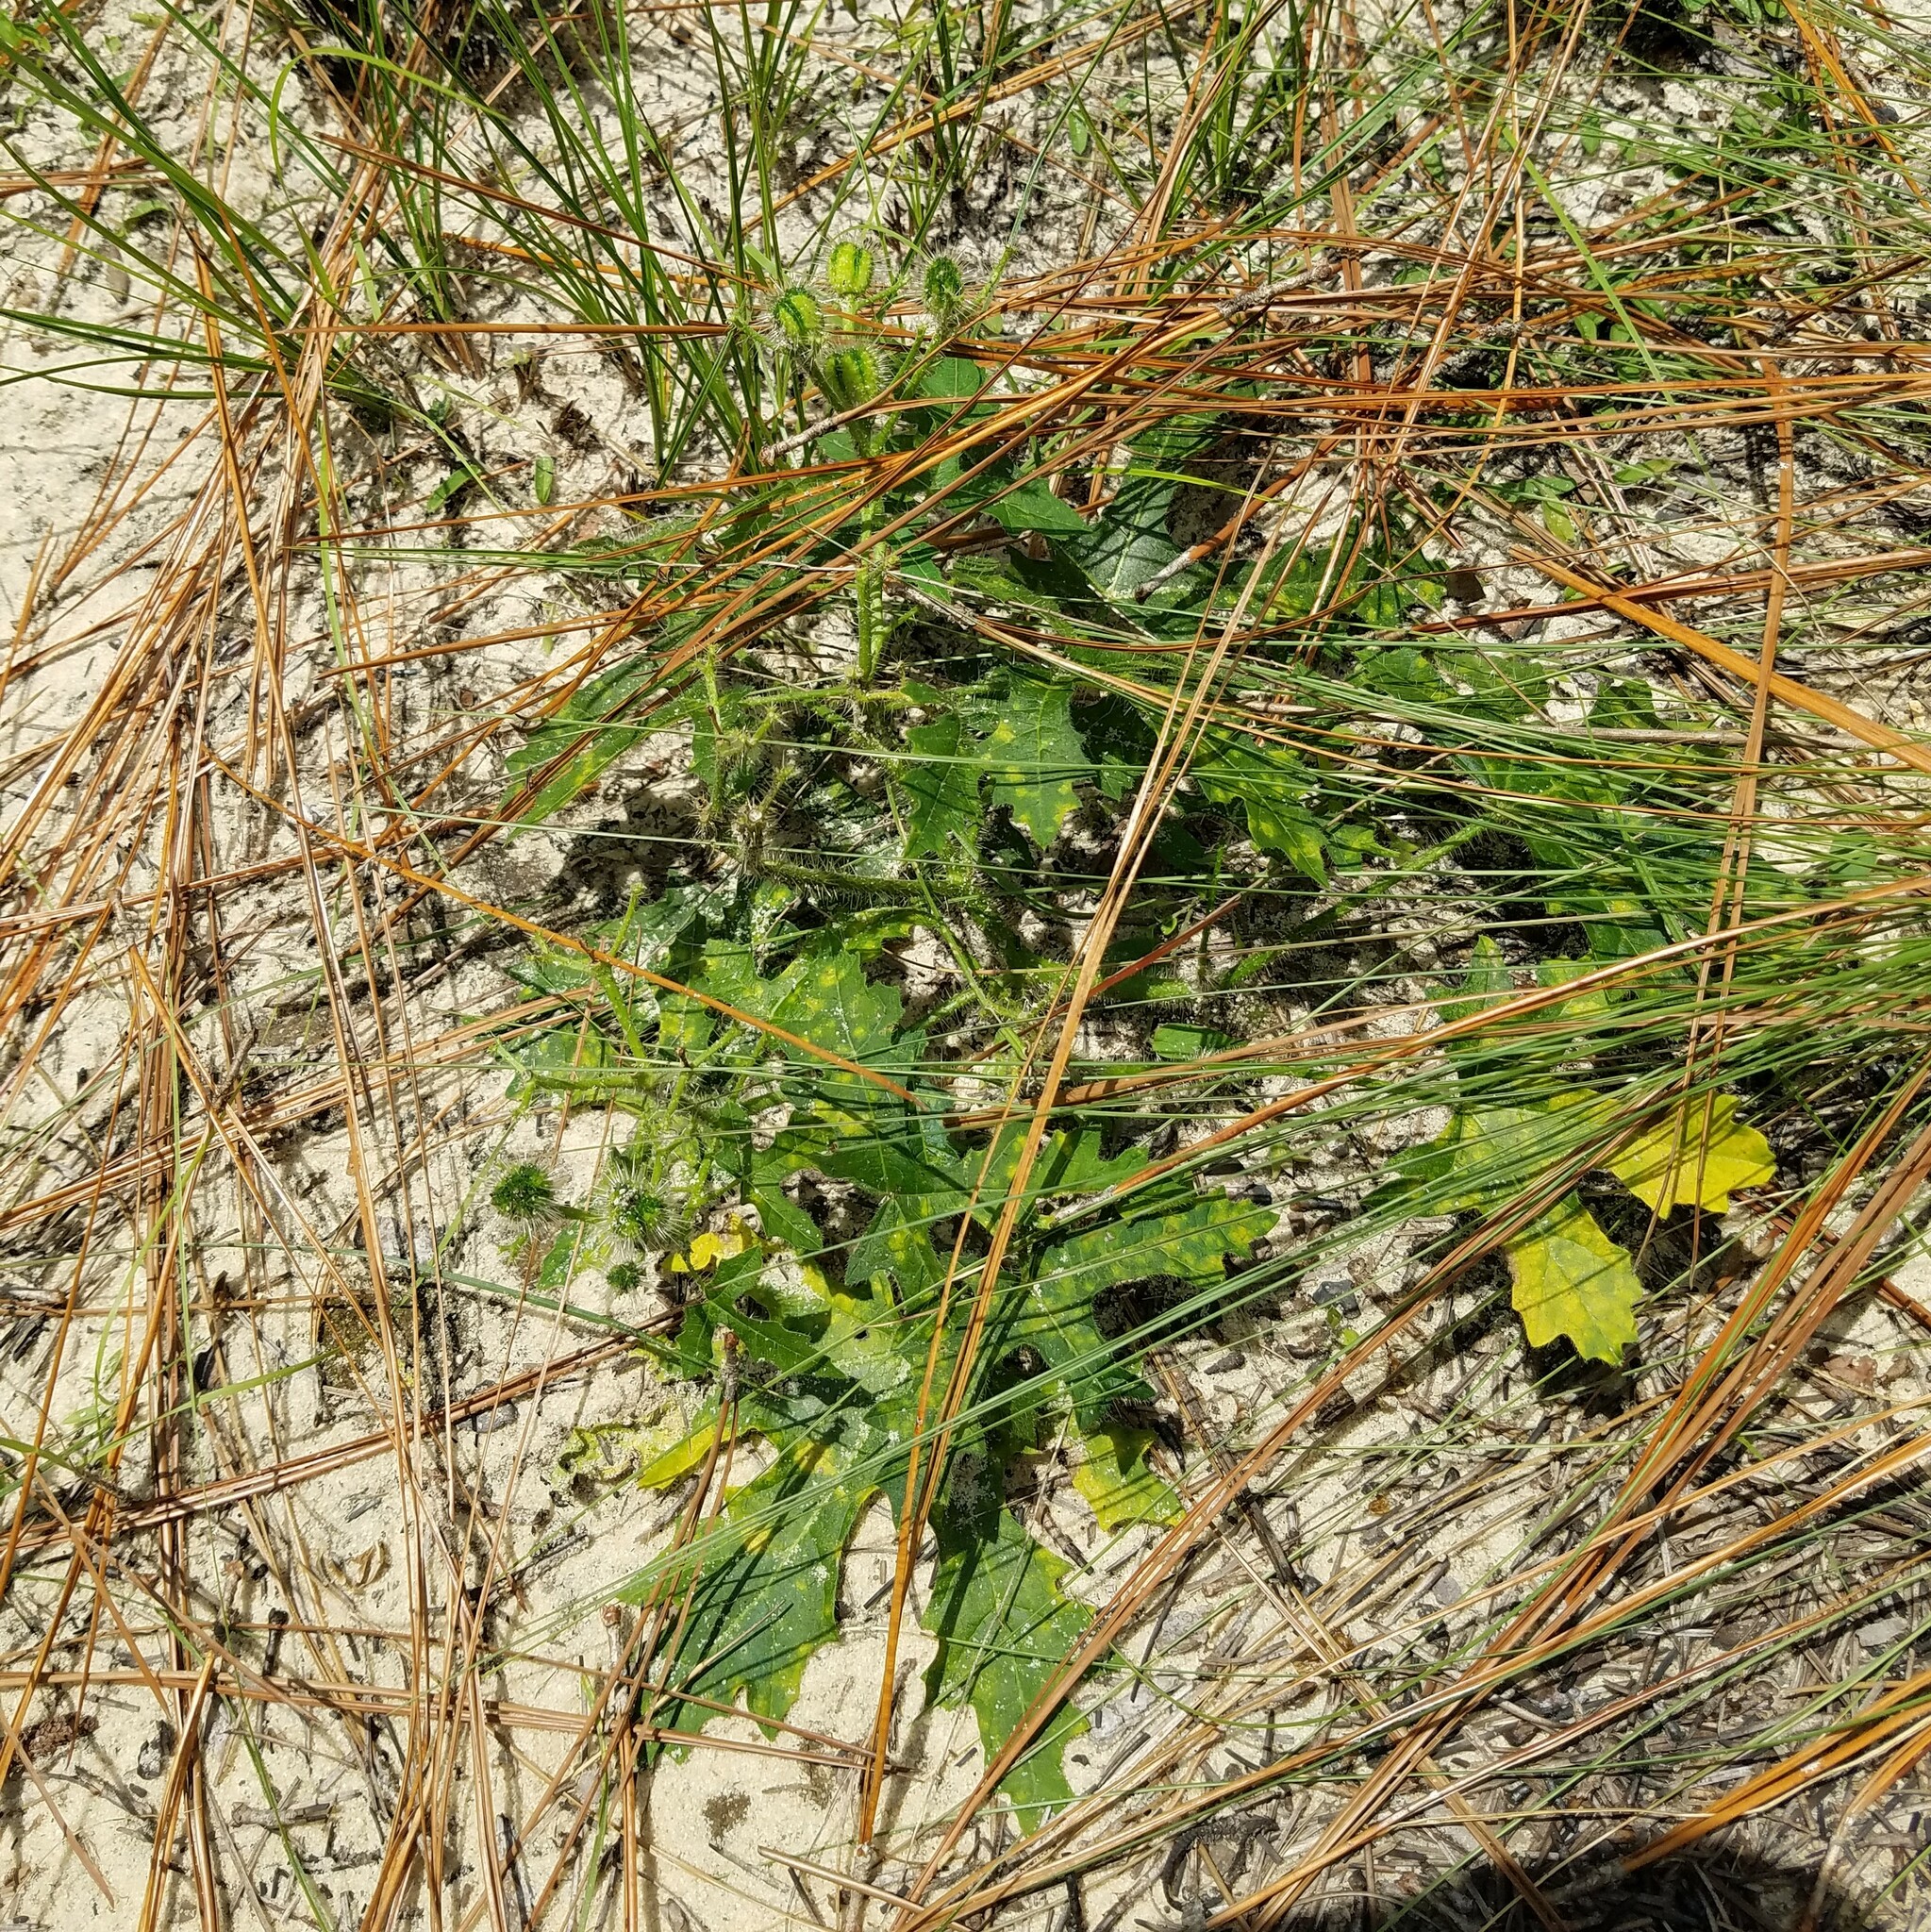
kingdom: Plantae
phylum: Tracheophyta
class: Magnoliopsida
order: Malpighiales
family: Euphorbiaceae
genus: Cnidoscolus
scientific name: Cnidoscolus stimulosus
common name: Bull-nettle
